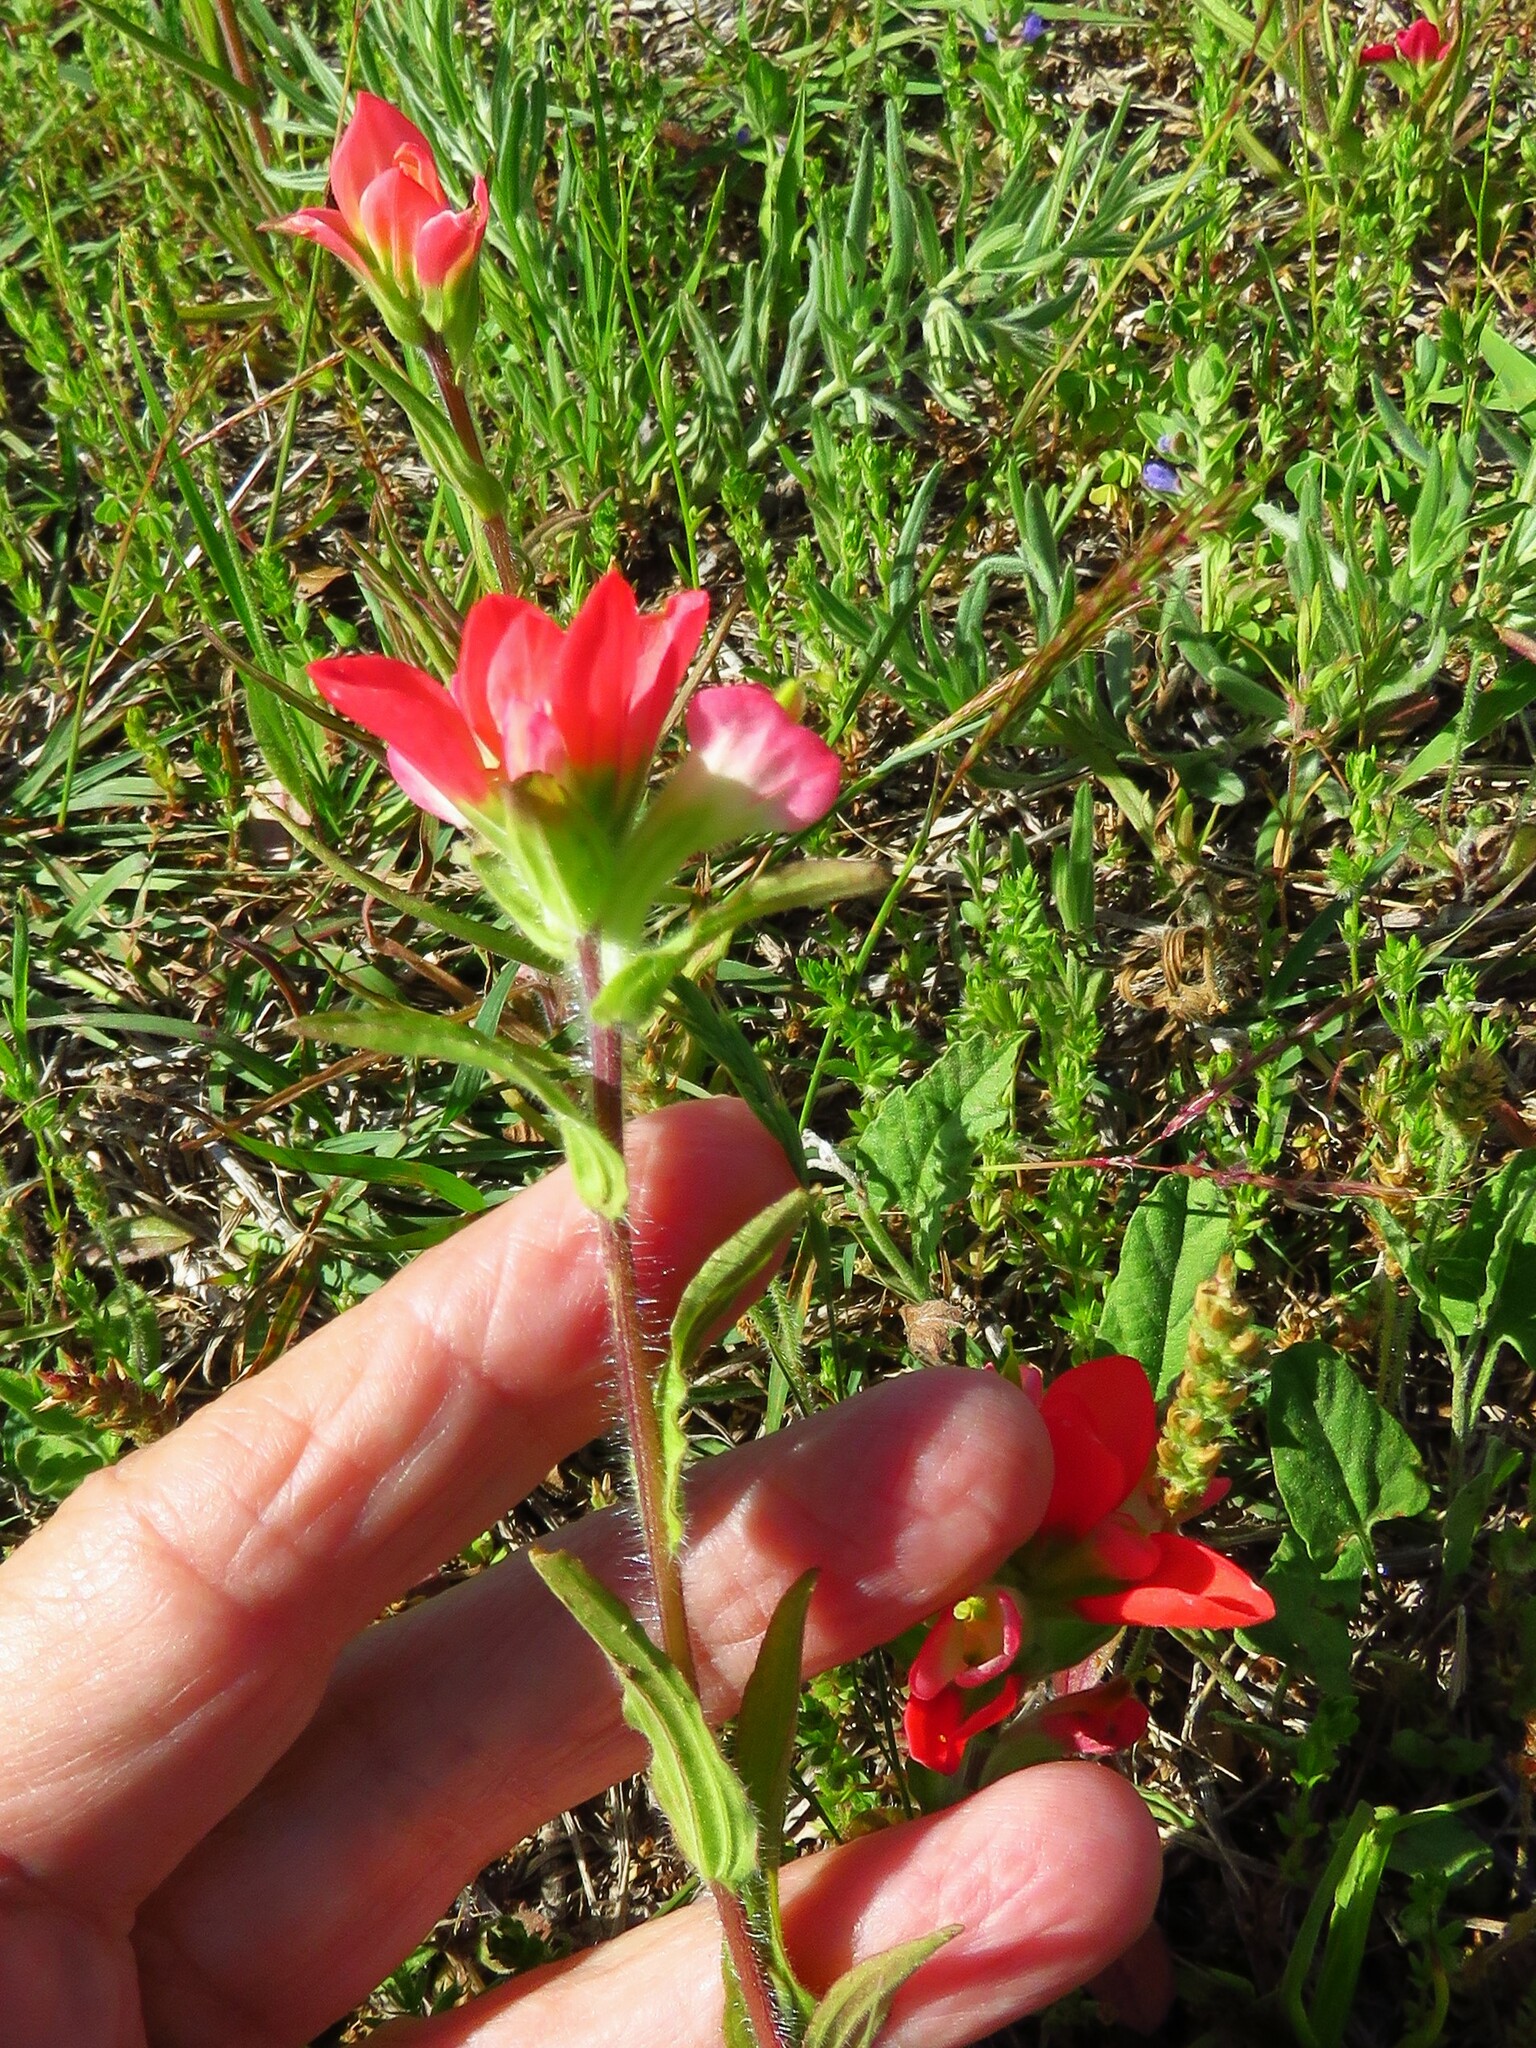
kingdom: Plantae
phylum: Tracheophyta
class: Magnoliopsida
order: Lamiales
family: Orobanchaceae
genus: Castilleja
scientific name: Castilleja indivisa
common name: Texas paintbrush
